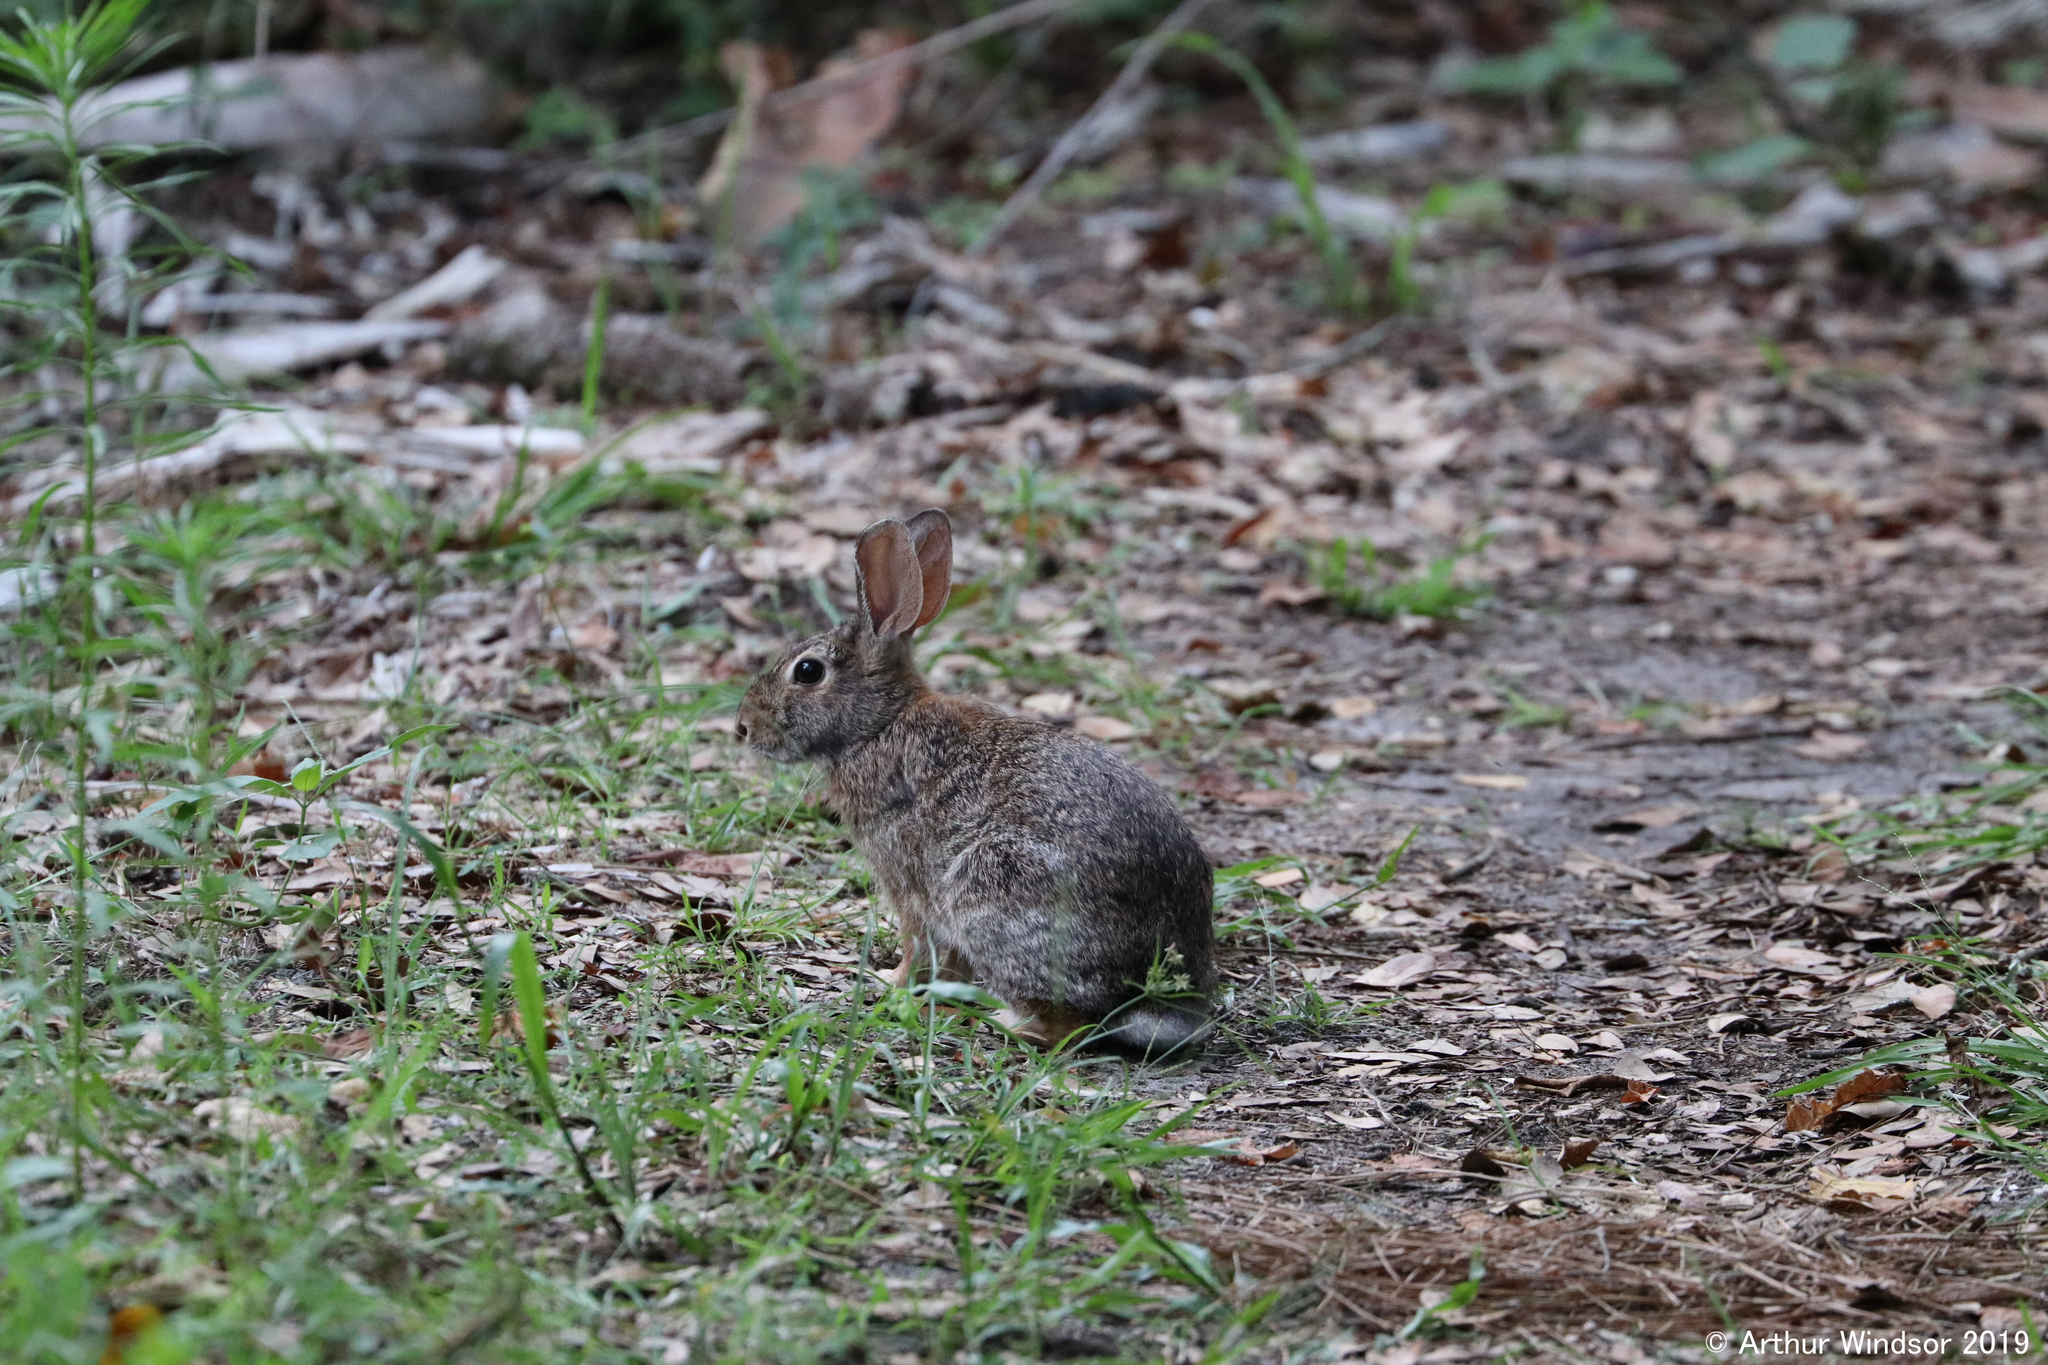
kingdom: Animalia
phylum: Chordata
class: Mammalia
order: Lagomorpha
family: Leporidae
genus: Sylvilagus
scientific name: Sylvilagus floridanus
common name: Eastern cottontail
